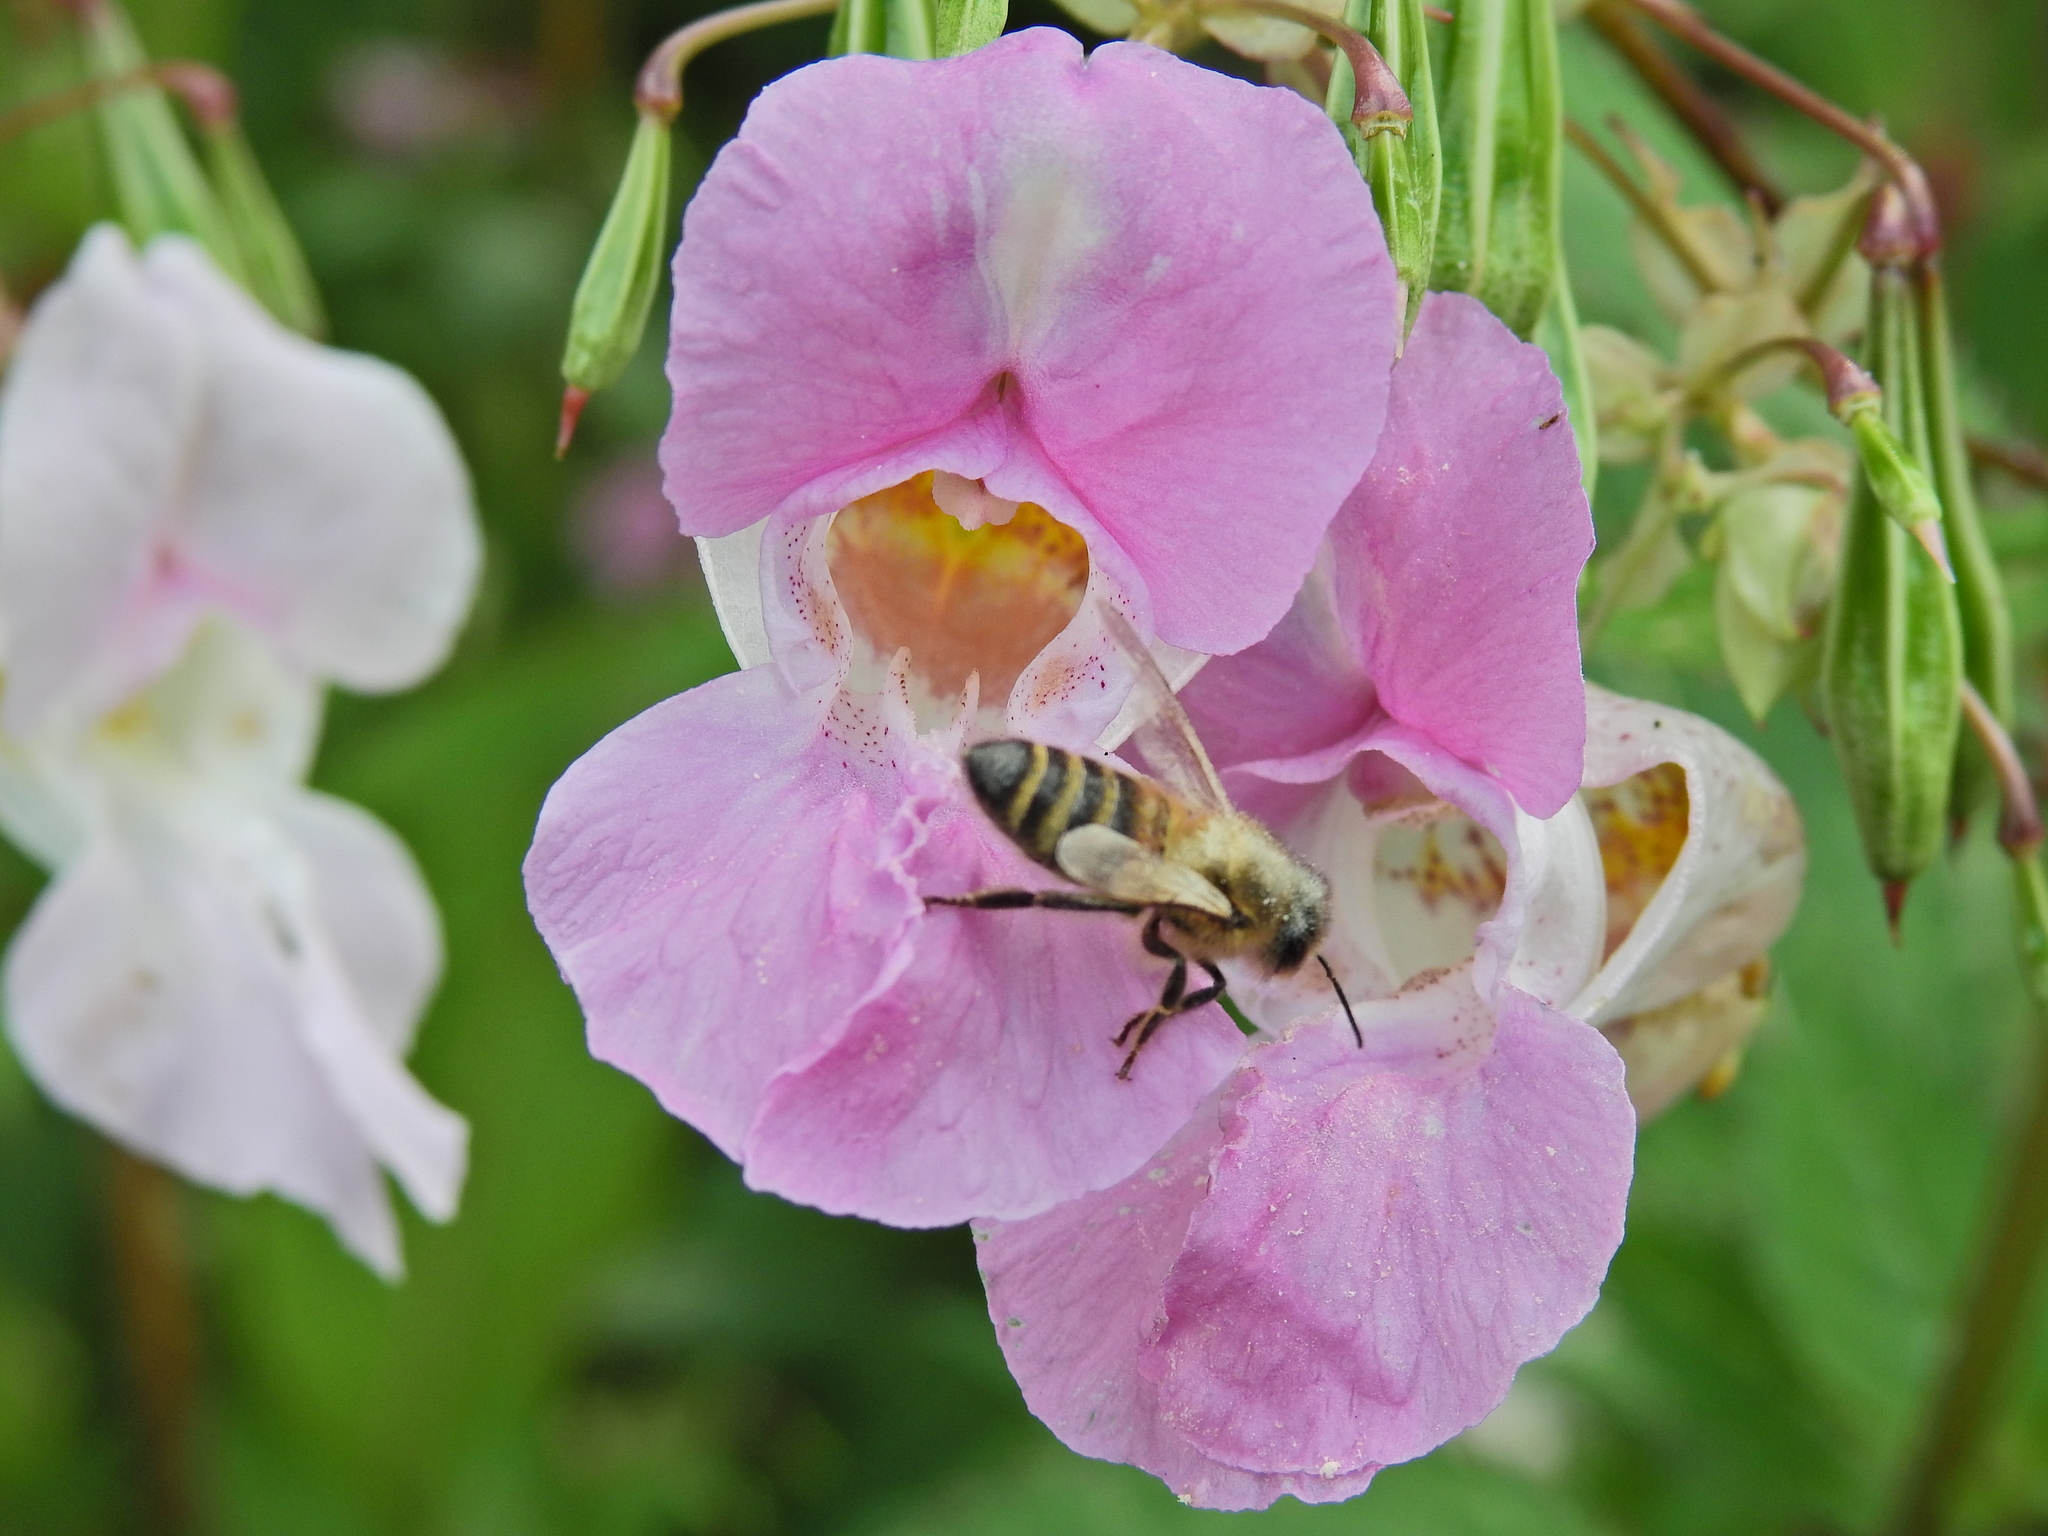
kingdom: Animalia
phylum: Arthropoda
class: Insecta
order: Hymenoptera
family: Apidae
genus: Apis
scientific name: Apis mellifera
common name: Honey bee
